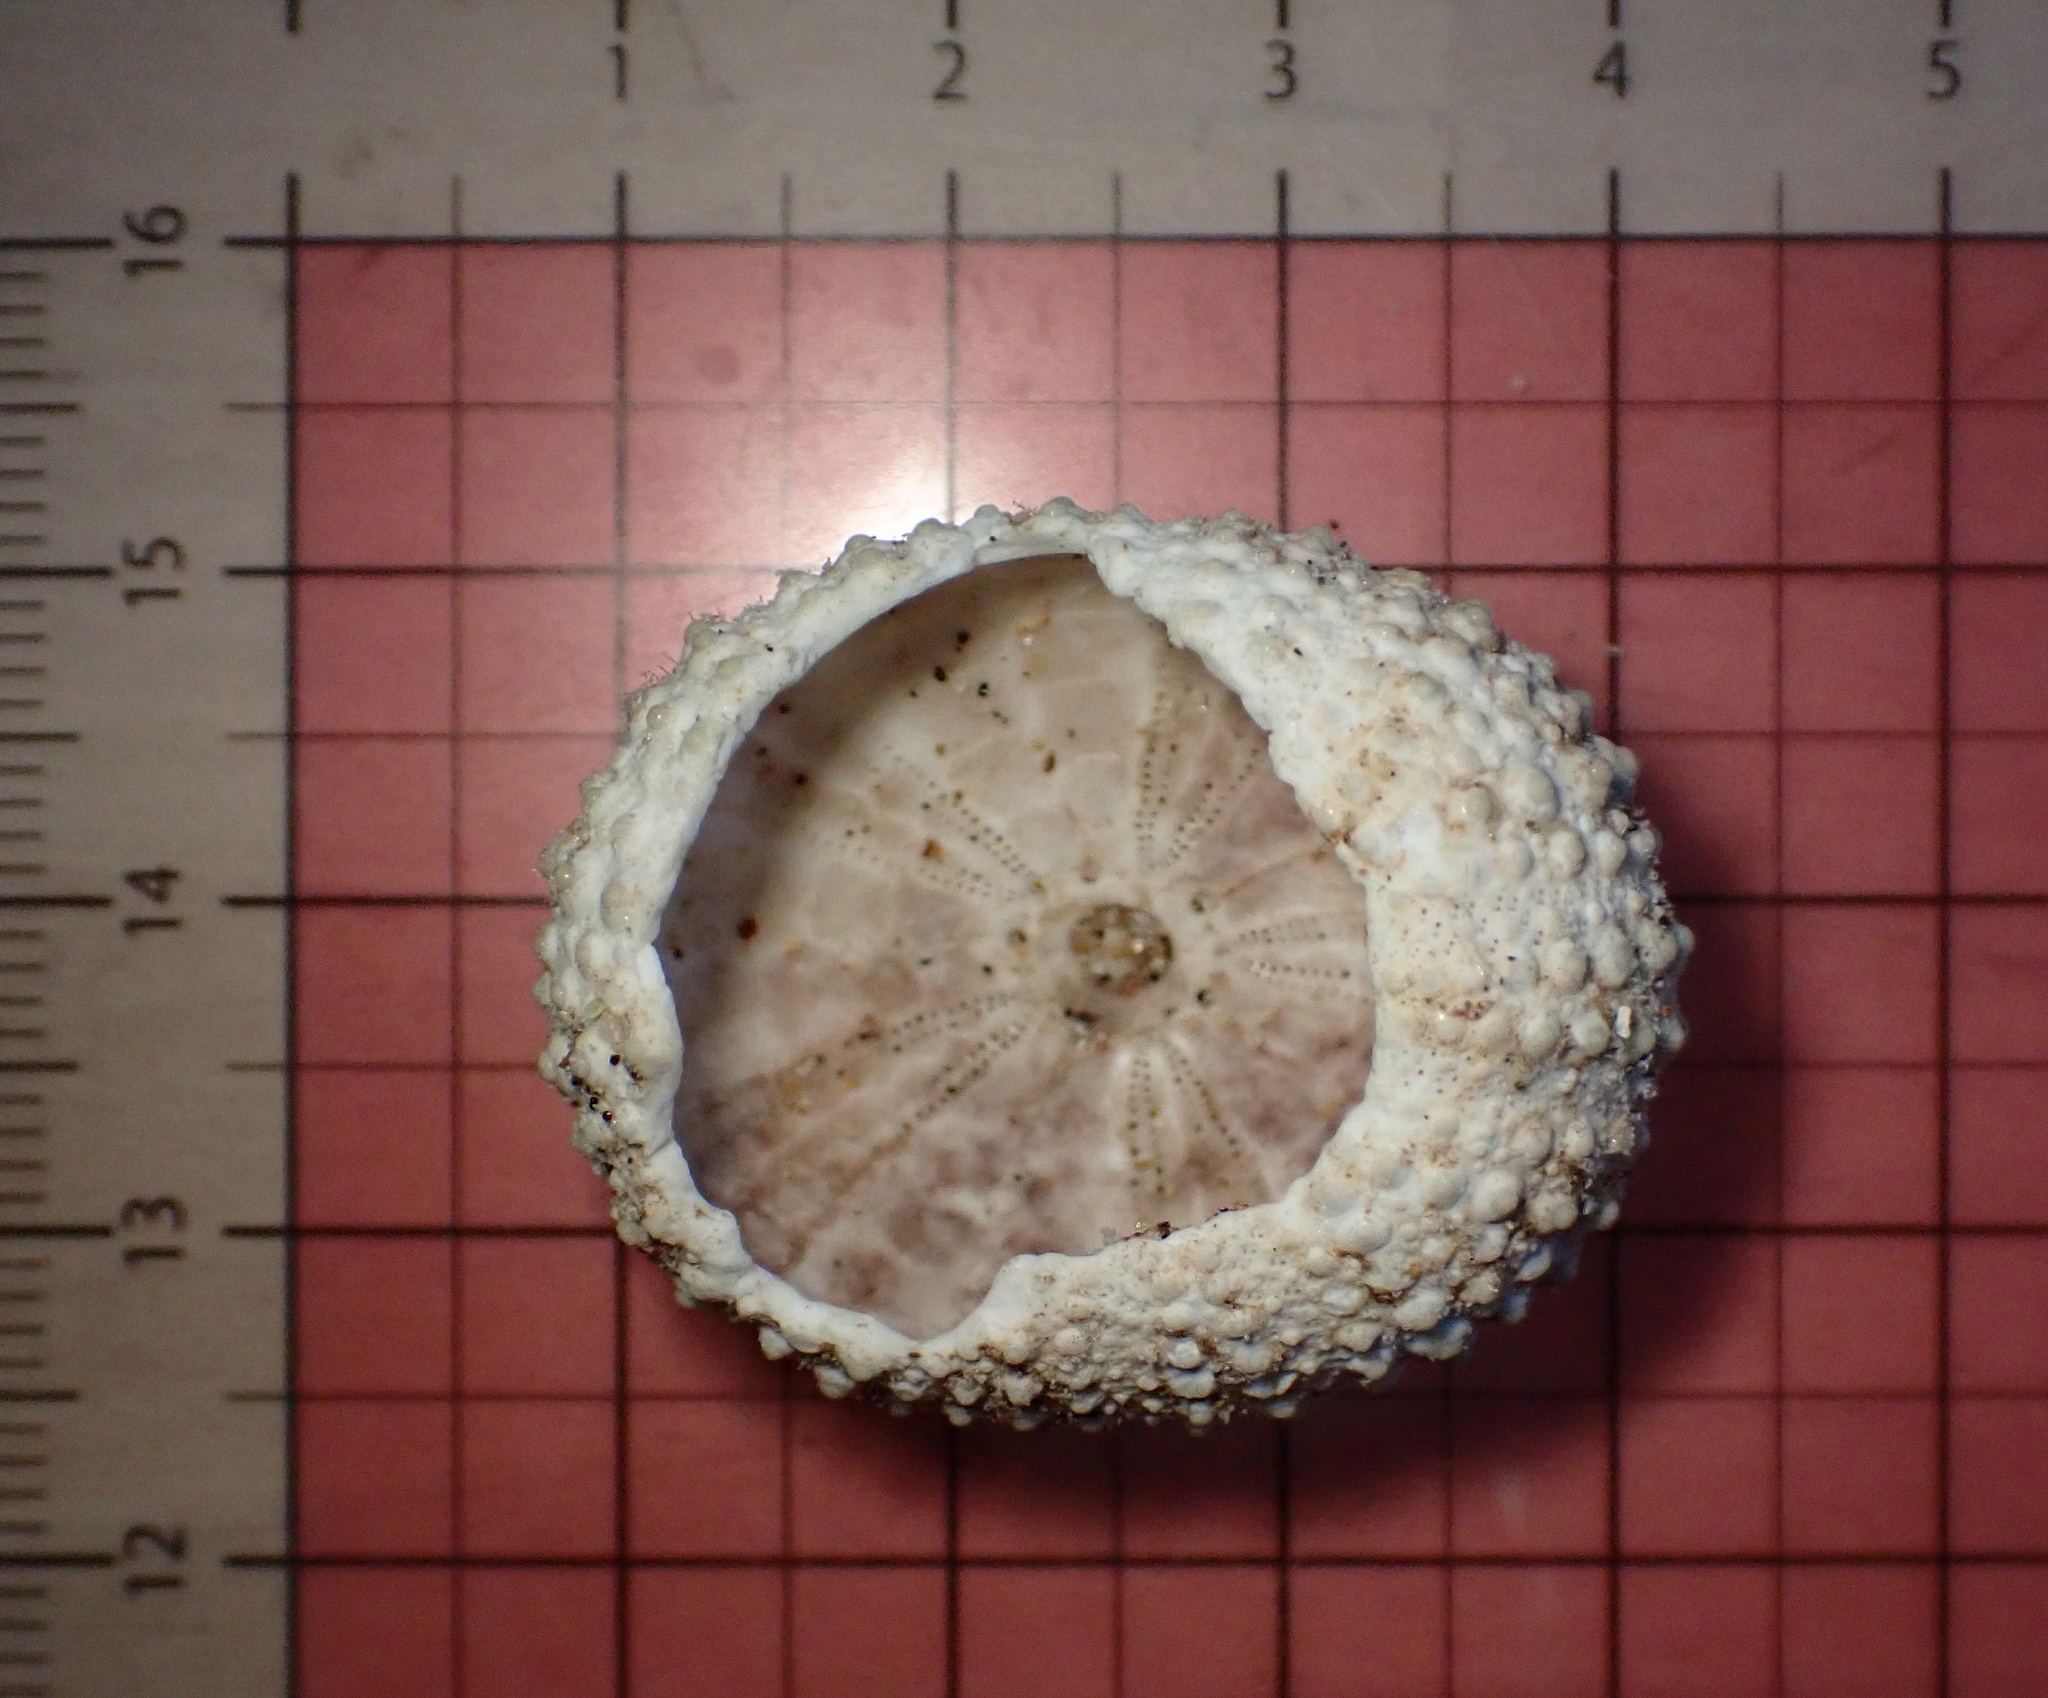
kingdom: Animalia
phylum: Echinodermata
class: Echinoidea
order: Camarodonta
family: Echinometridae
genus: Echinometra
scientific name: Echinometra mathaei
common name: Rock-boring urchin
